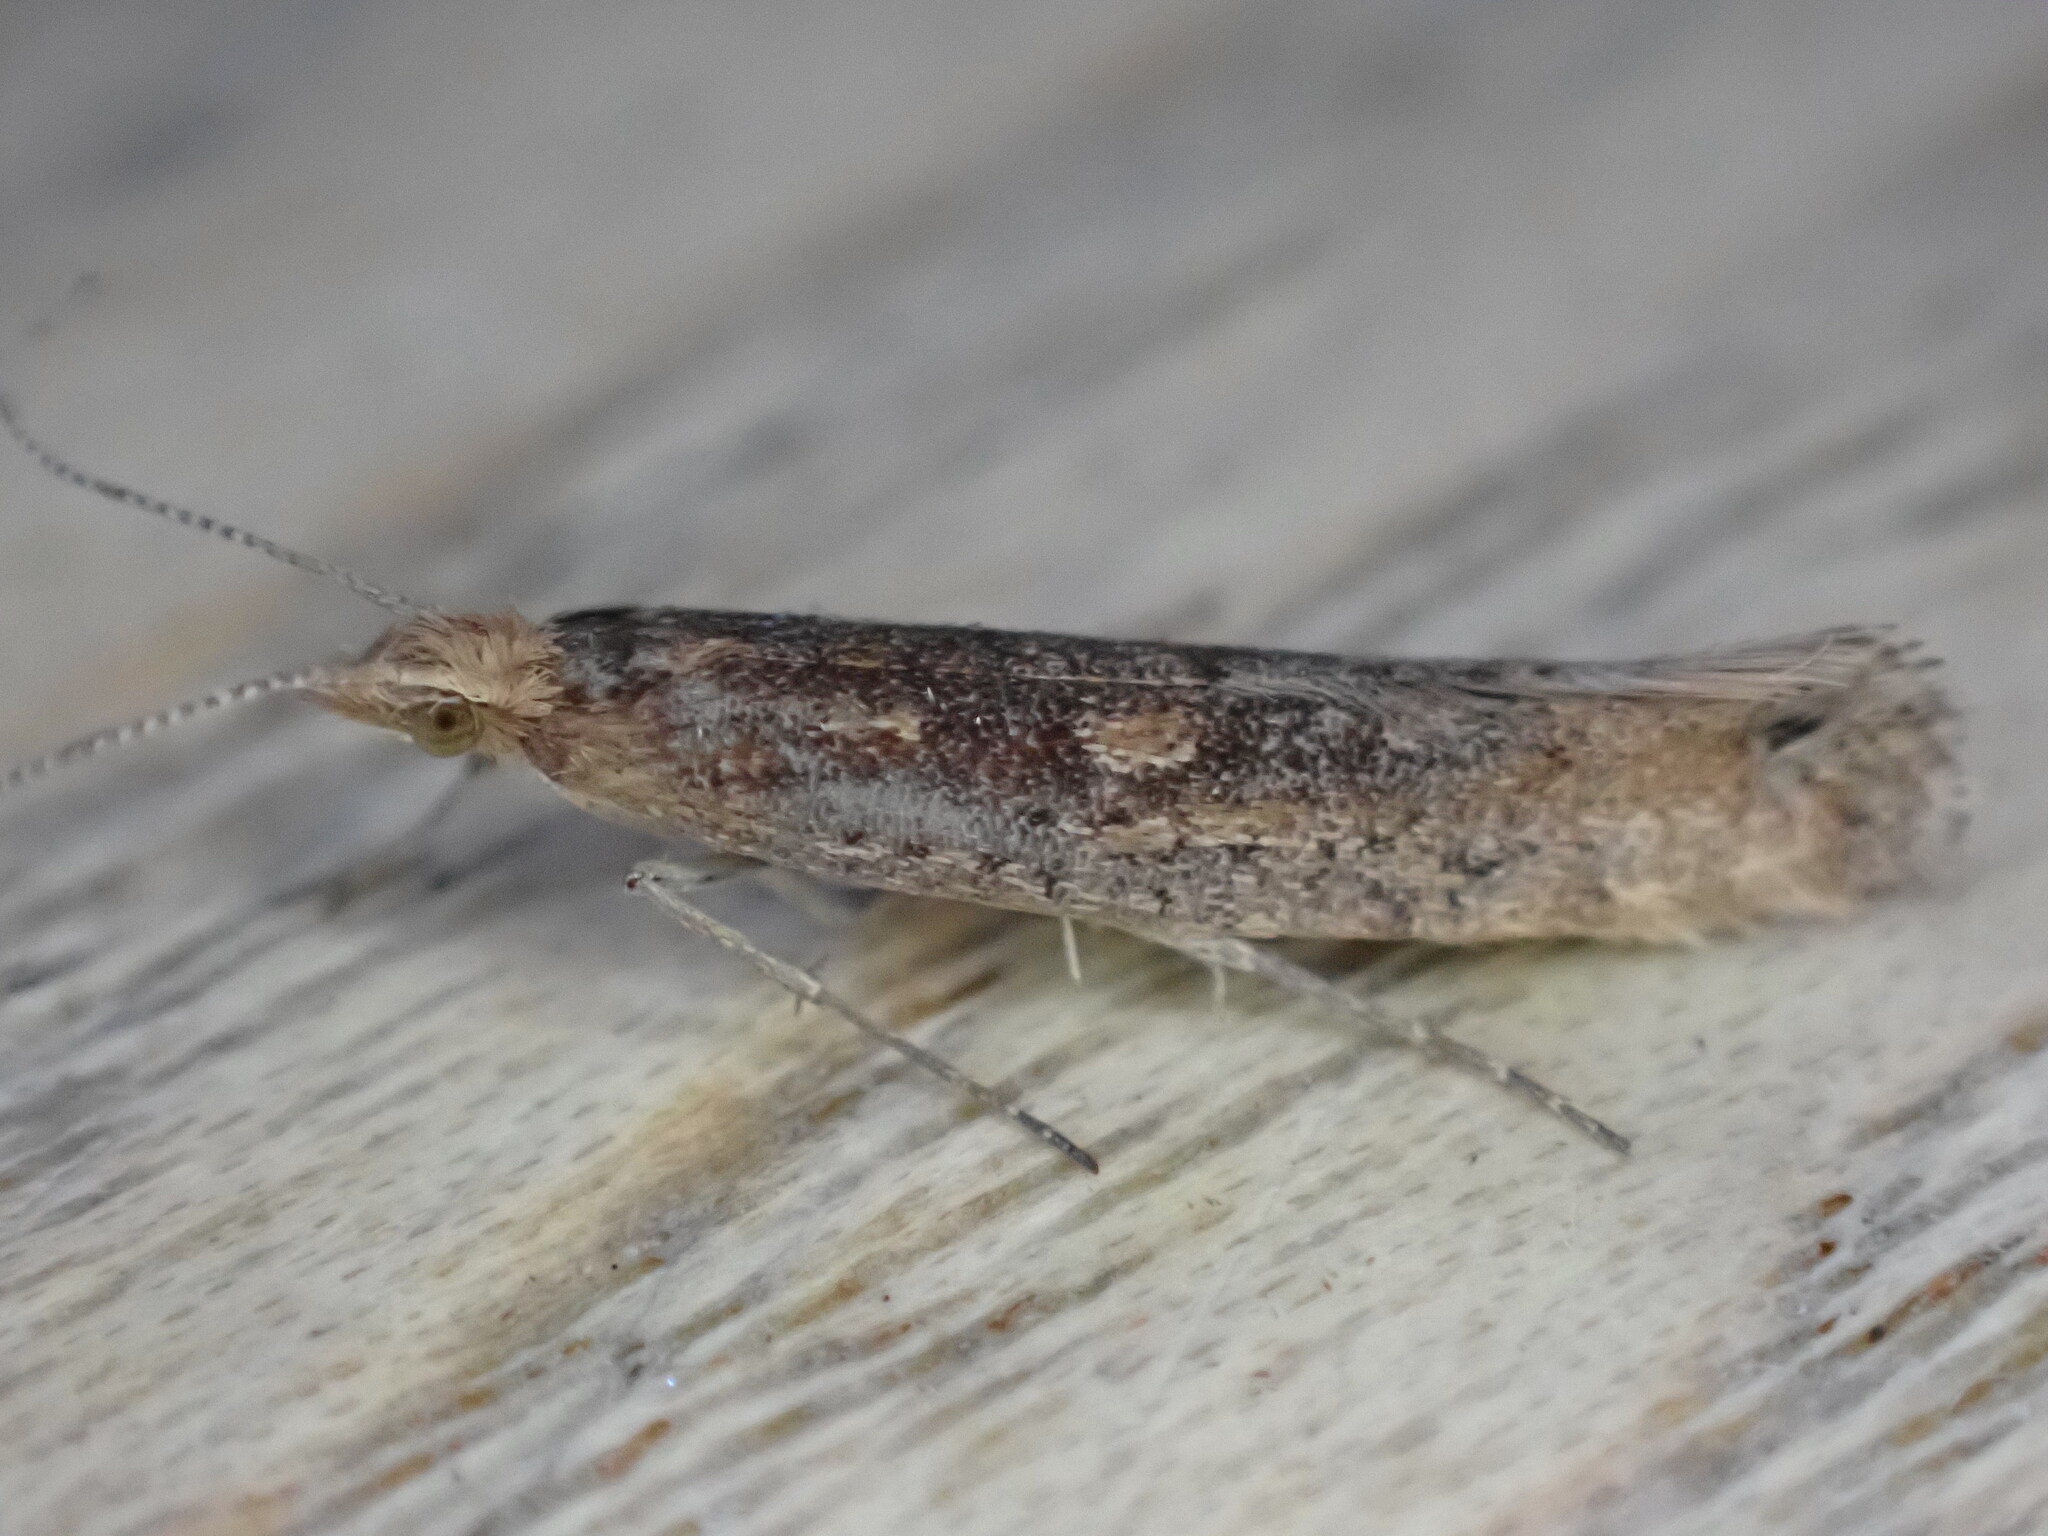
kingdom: Animalia
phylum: Arthropoda
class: Insecta
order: Lepidoptera
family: Plutellidae
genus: Ypsolophus
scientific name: Ypsolophus ustella
